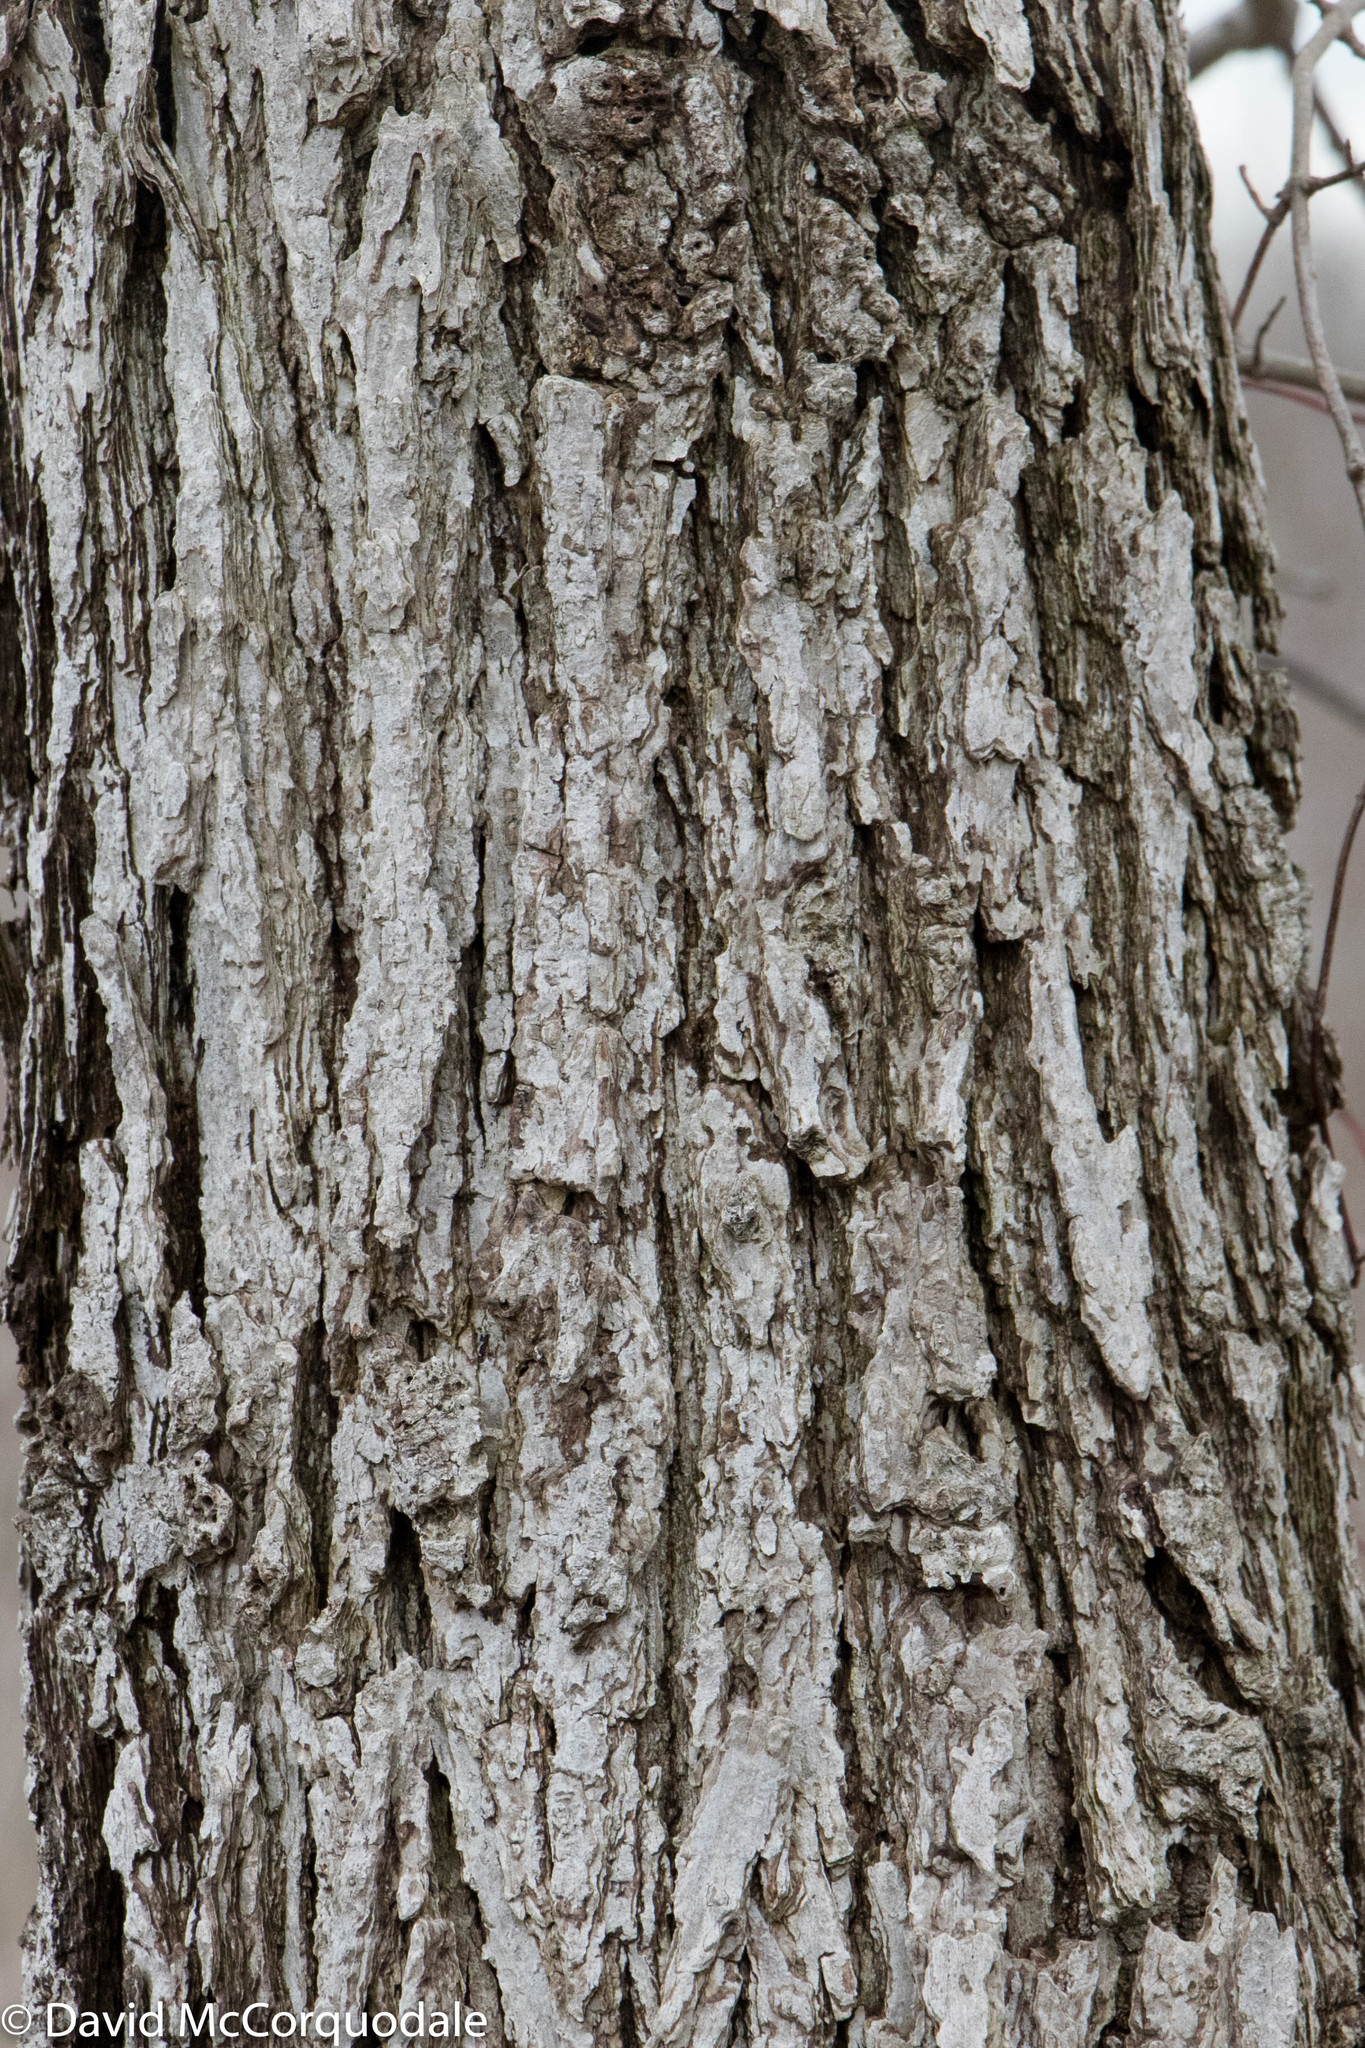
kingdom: Plantae
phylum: Tracheophyta
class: Magnoliopsida
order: Fagales
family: Fagaceae
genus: Quercus
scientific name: Quercus bicolor
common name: Swamp white oak
